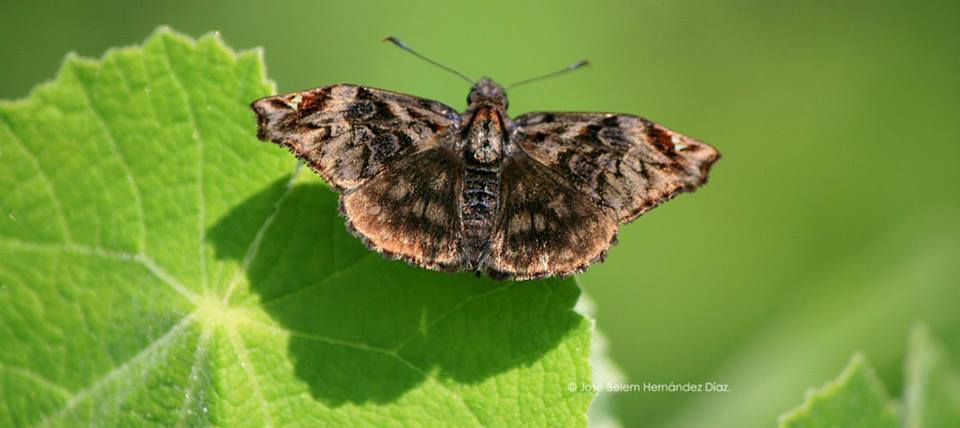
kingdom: Animalia
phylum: Arthropoda
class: Insecta
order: Lepidoptera
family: Hesperiidae
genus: Noctuana
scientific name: Noctuana stator
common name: Red-studded skipper
